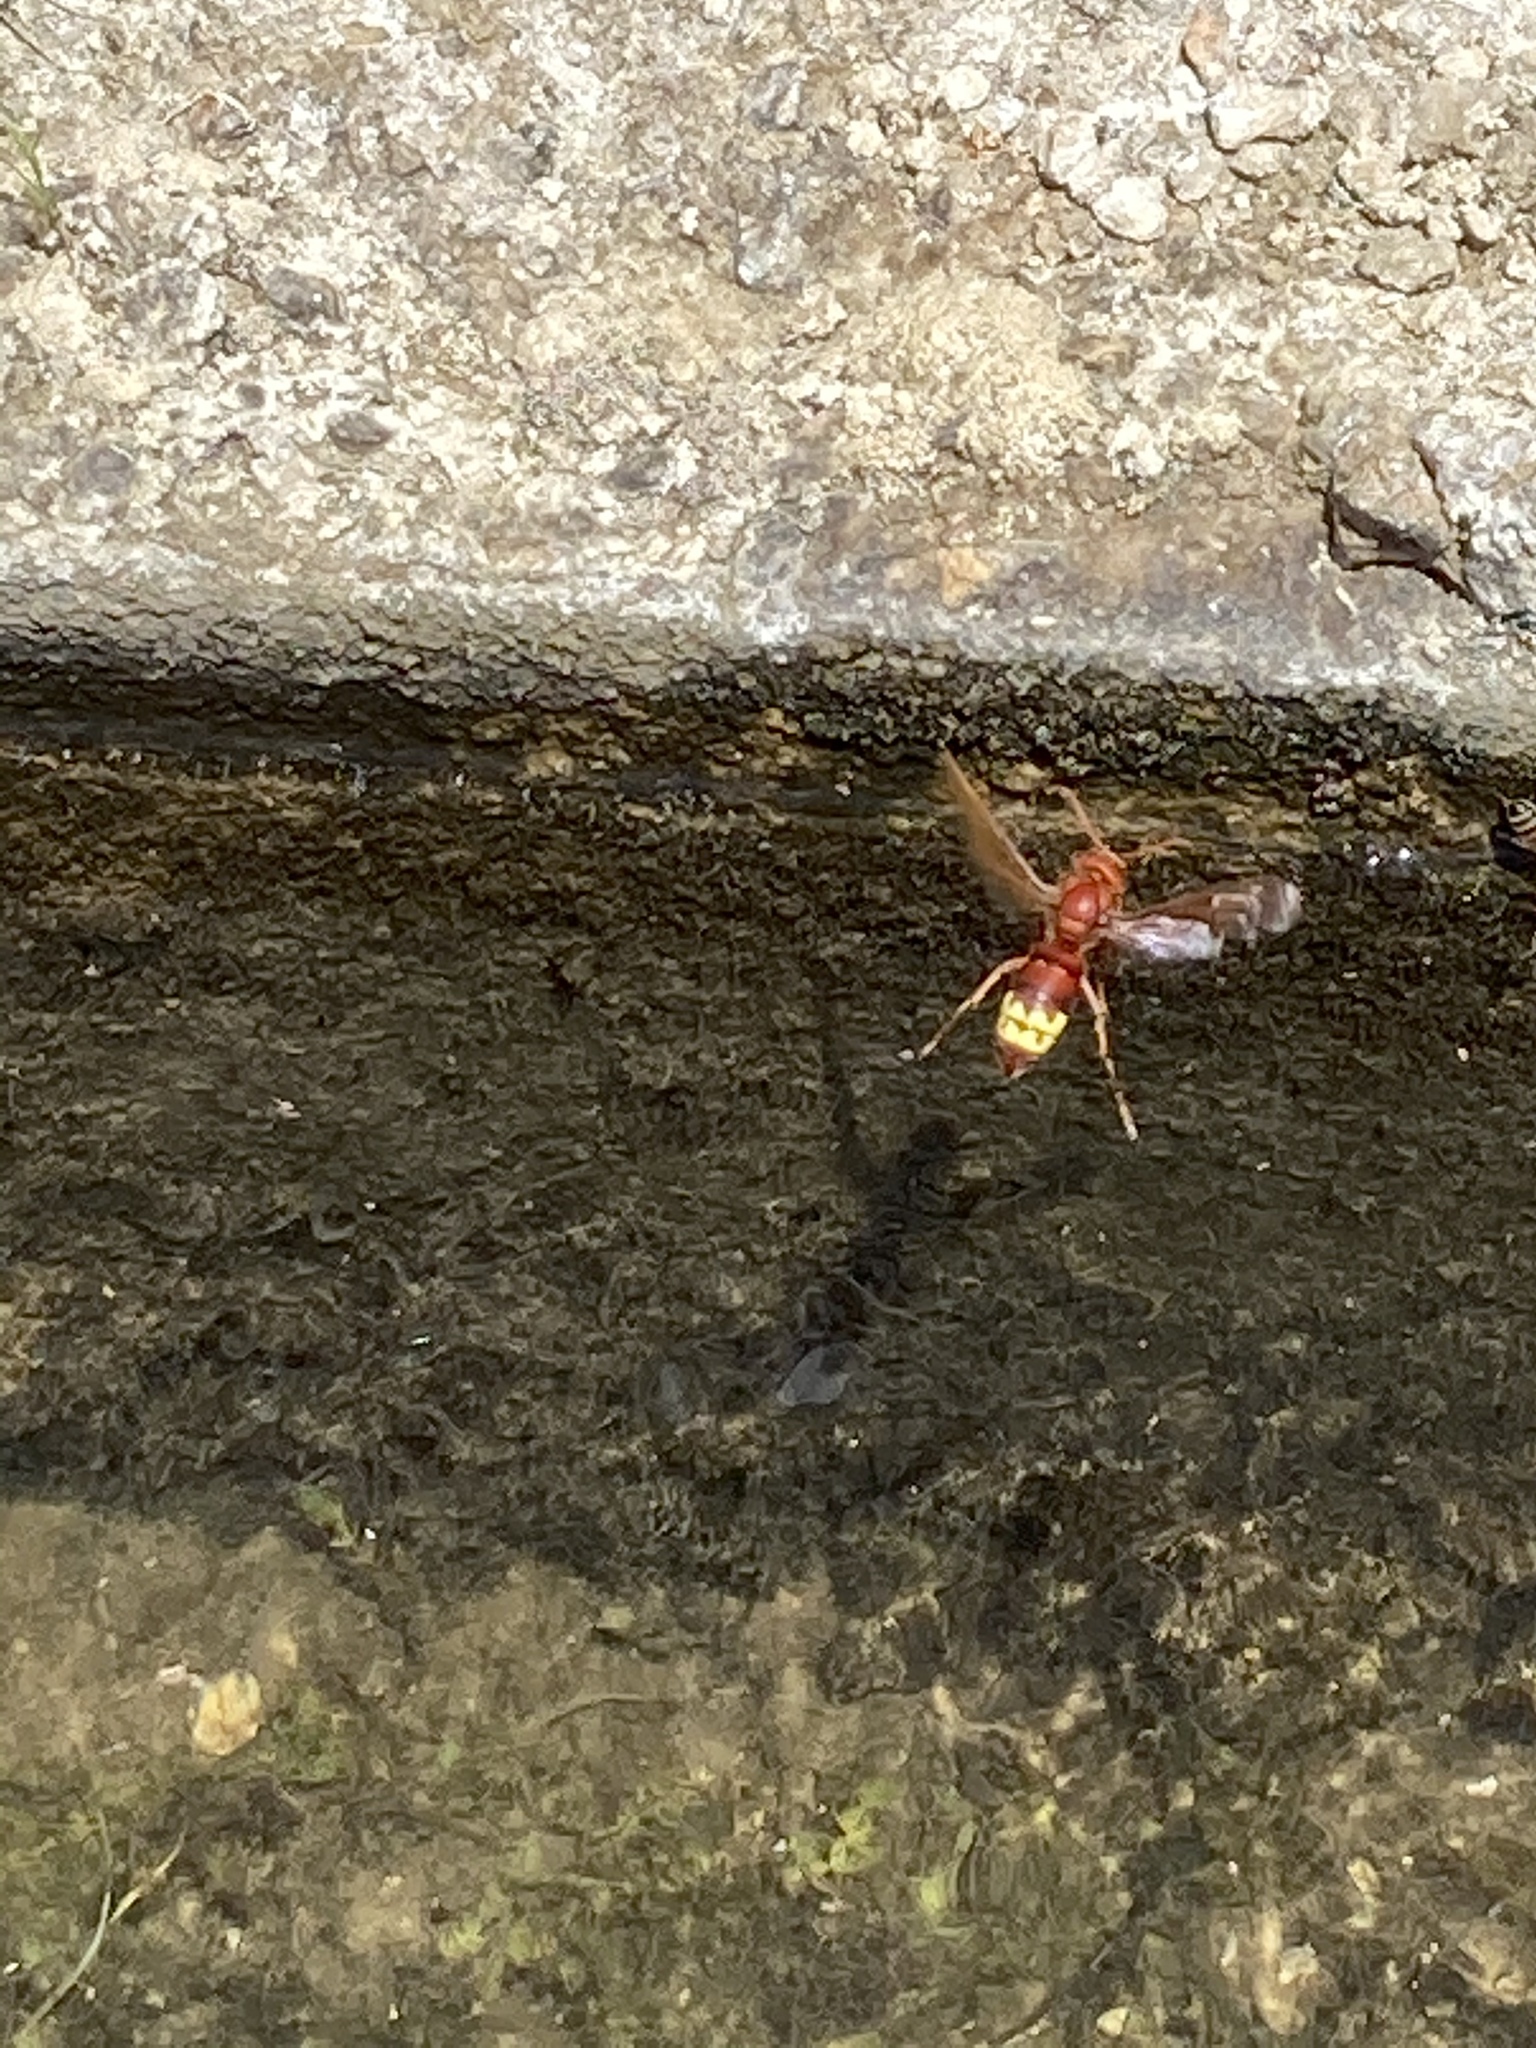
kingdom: Animalia
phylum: Arthropoda
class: Insecta
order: Hymenoptera
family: Vespidae
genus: Vespa
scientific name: Vespa orientalis
